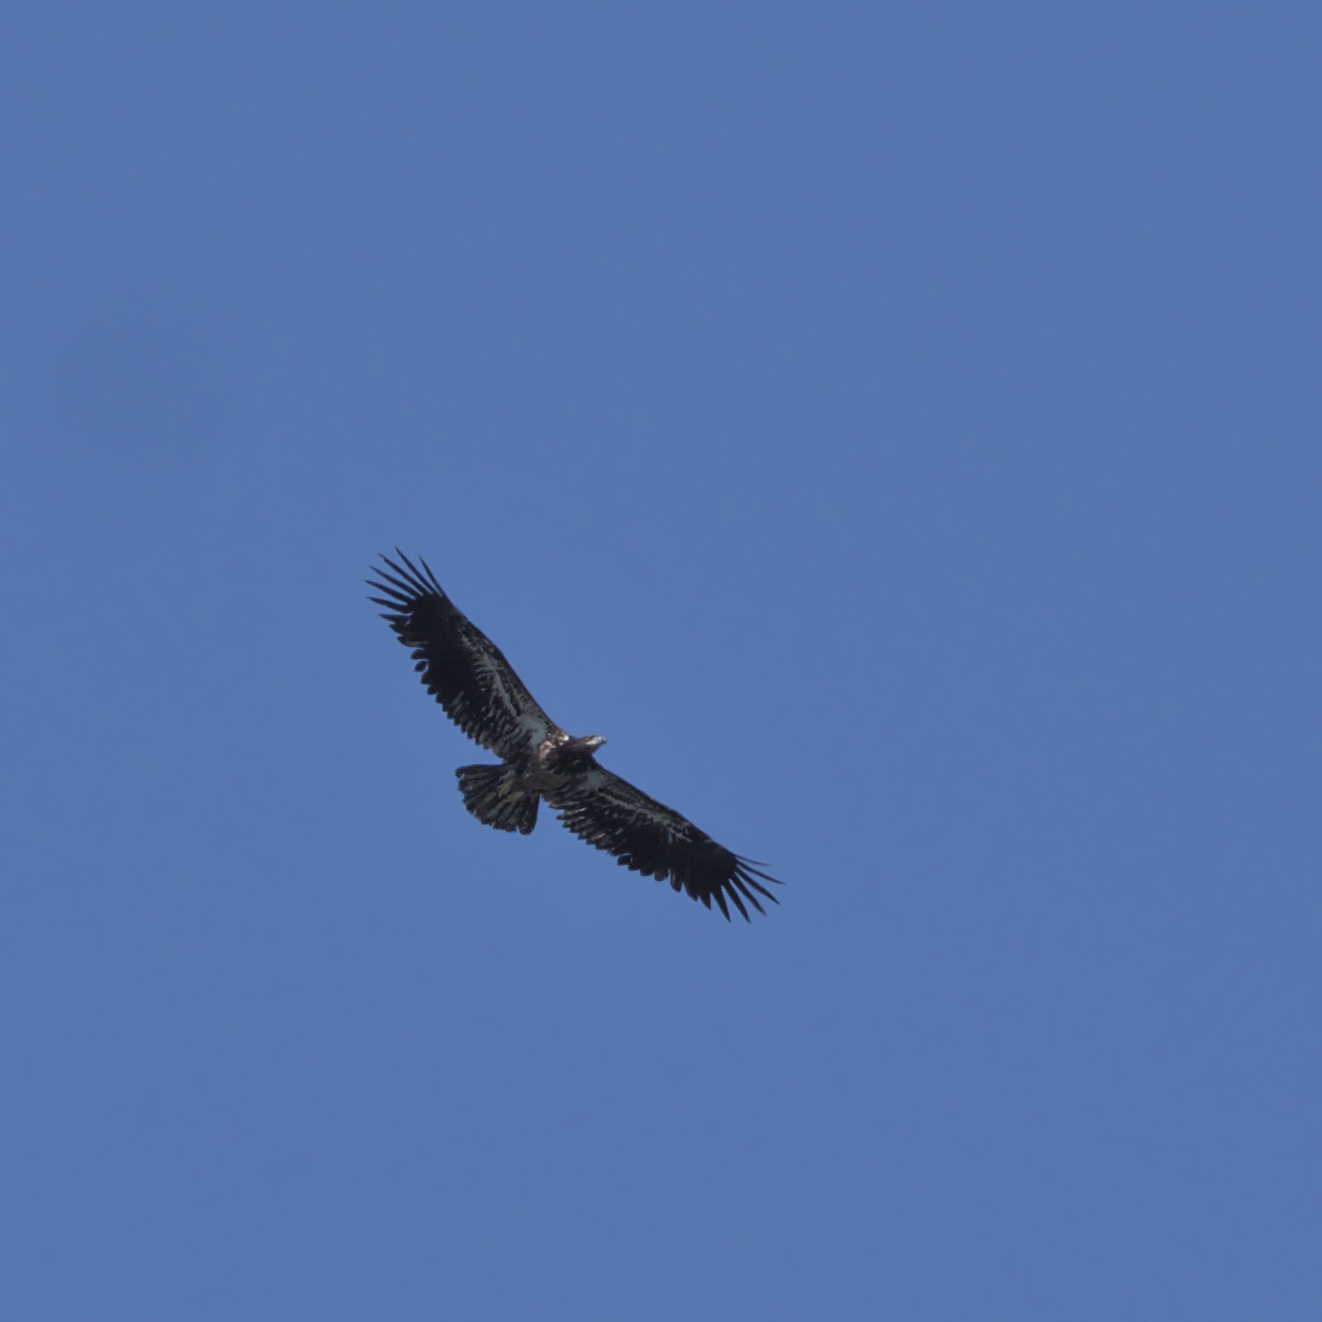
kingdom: Animalia
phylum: Chordata
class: Aves
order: Accipitriformes
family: Accipitridae
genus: Haliaeetus
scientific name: Haliaeetus leucocephalus
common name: Bald eagle
